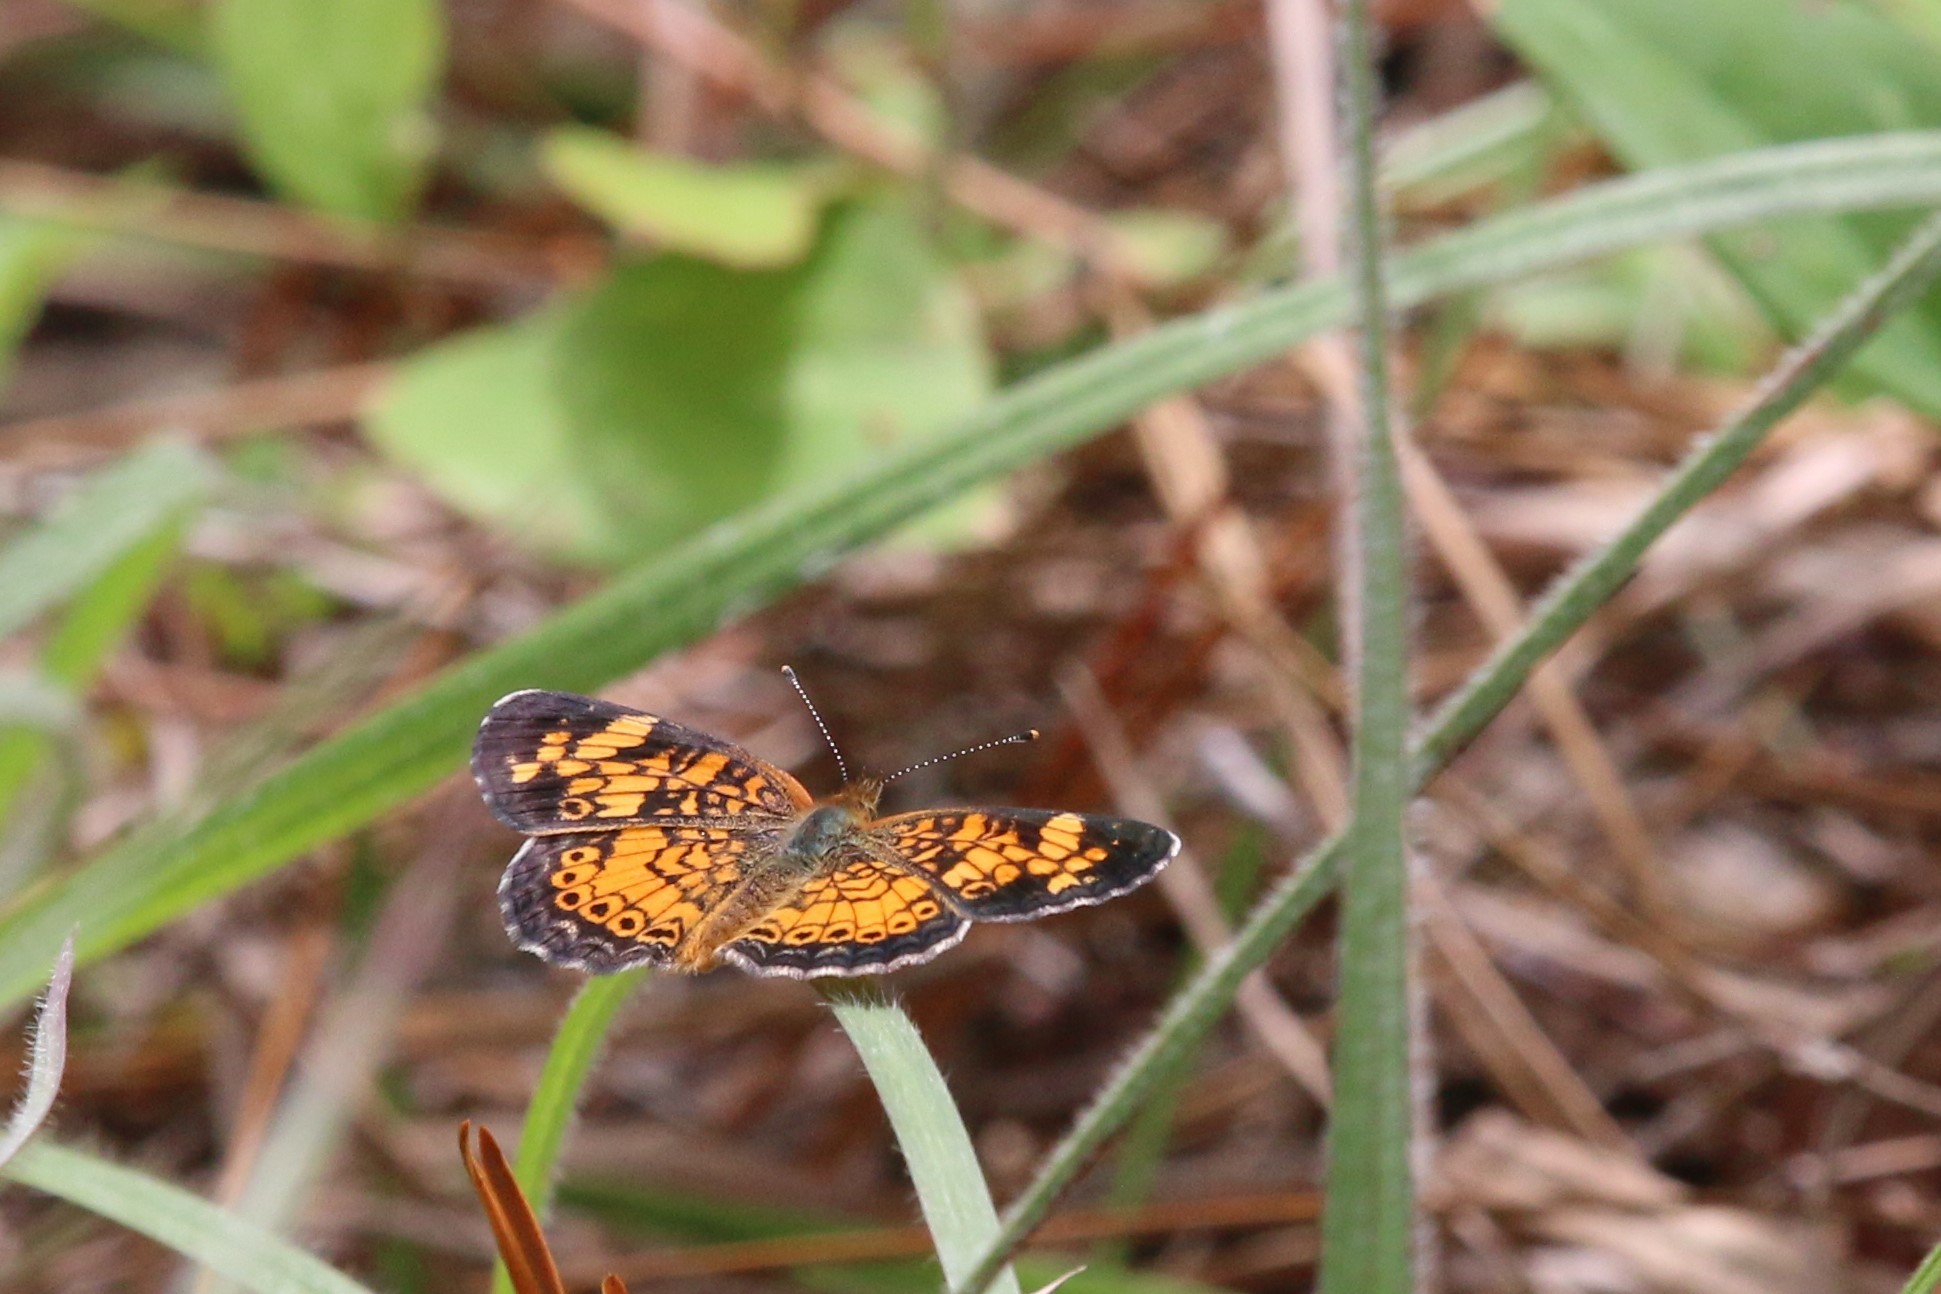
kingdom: Animalia
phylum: Arthropoda
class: Insecta
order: Lepidoptera
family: Nymphalidae
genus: Phyciodes
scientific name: Phyciodes tharos
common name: Pearl crescent
